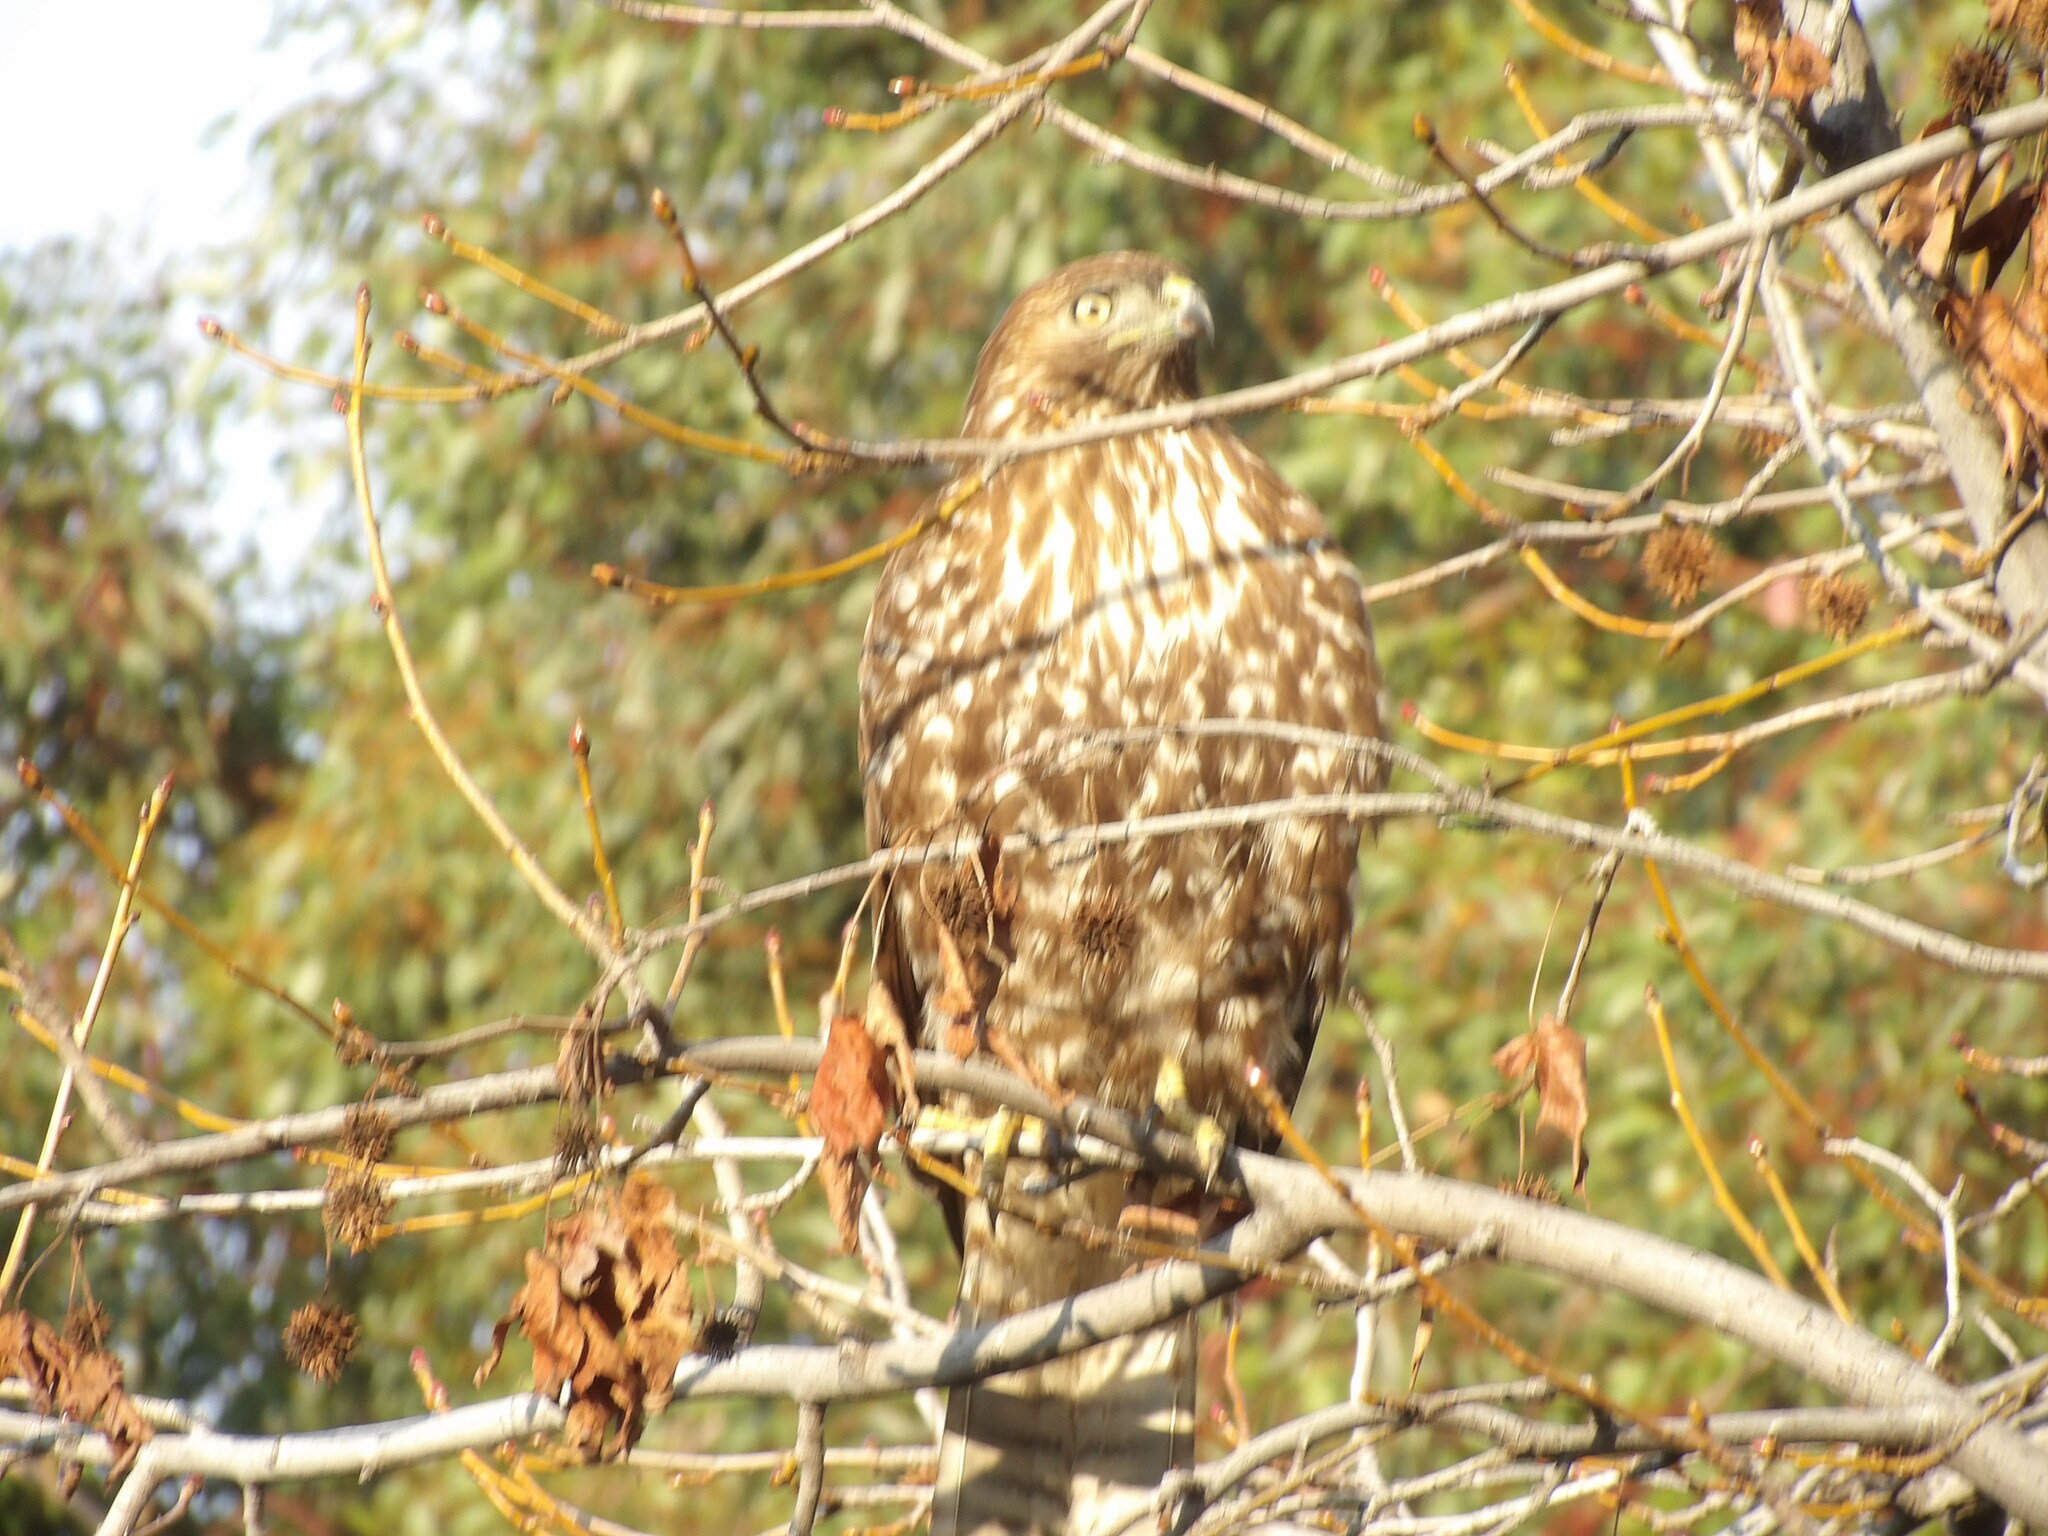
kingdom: Animalia
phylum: Chordata
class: Aves
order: Accipitriformes
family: Accipitridae
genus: Buteo
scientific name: Buteo jamaicensis
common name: Red-tailed hawk
